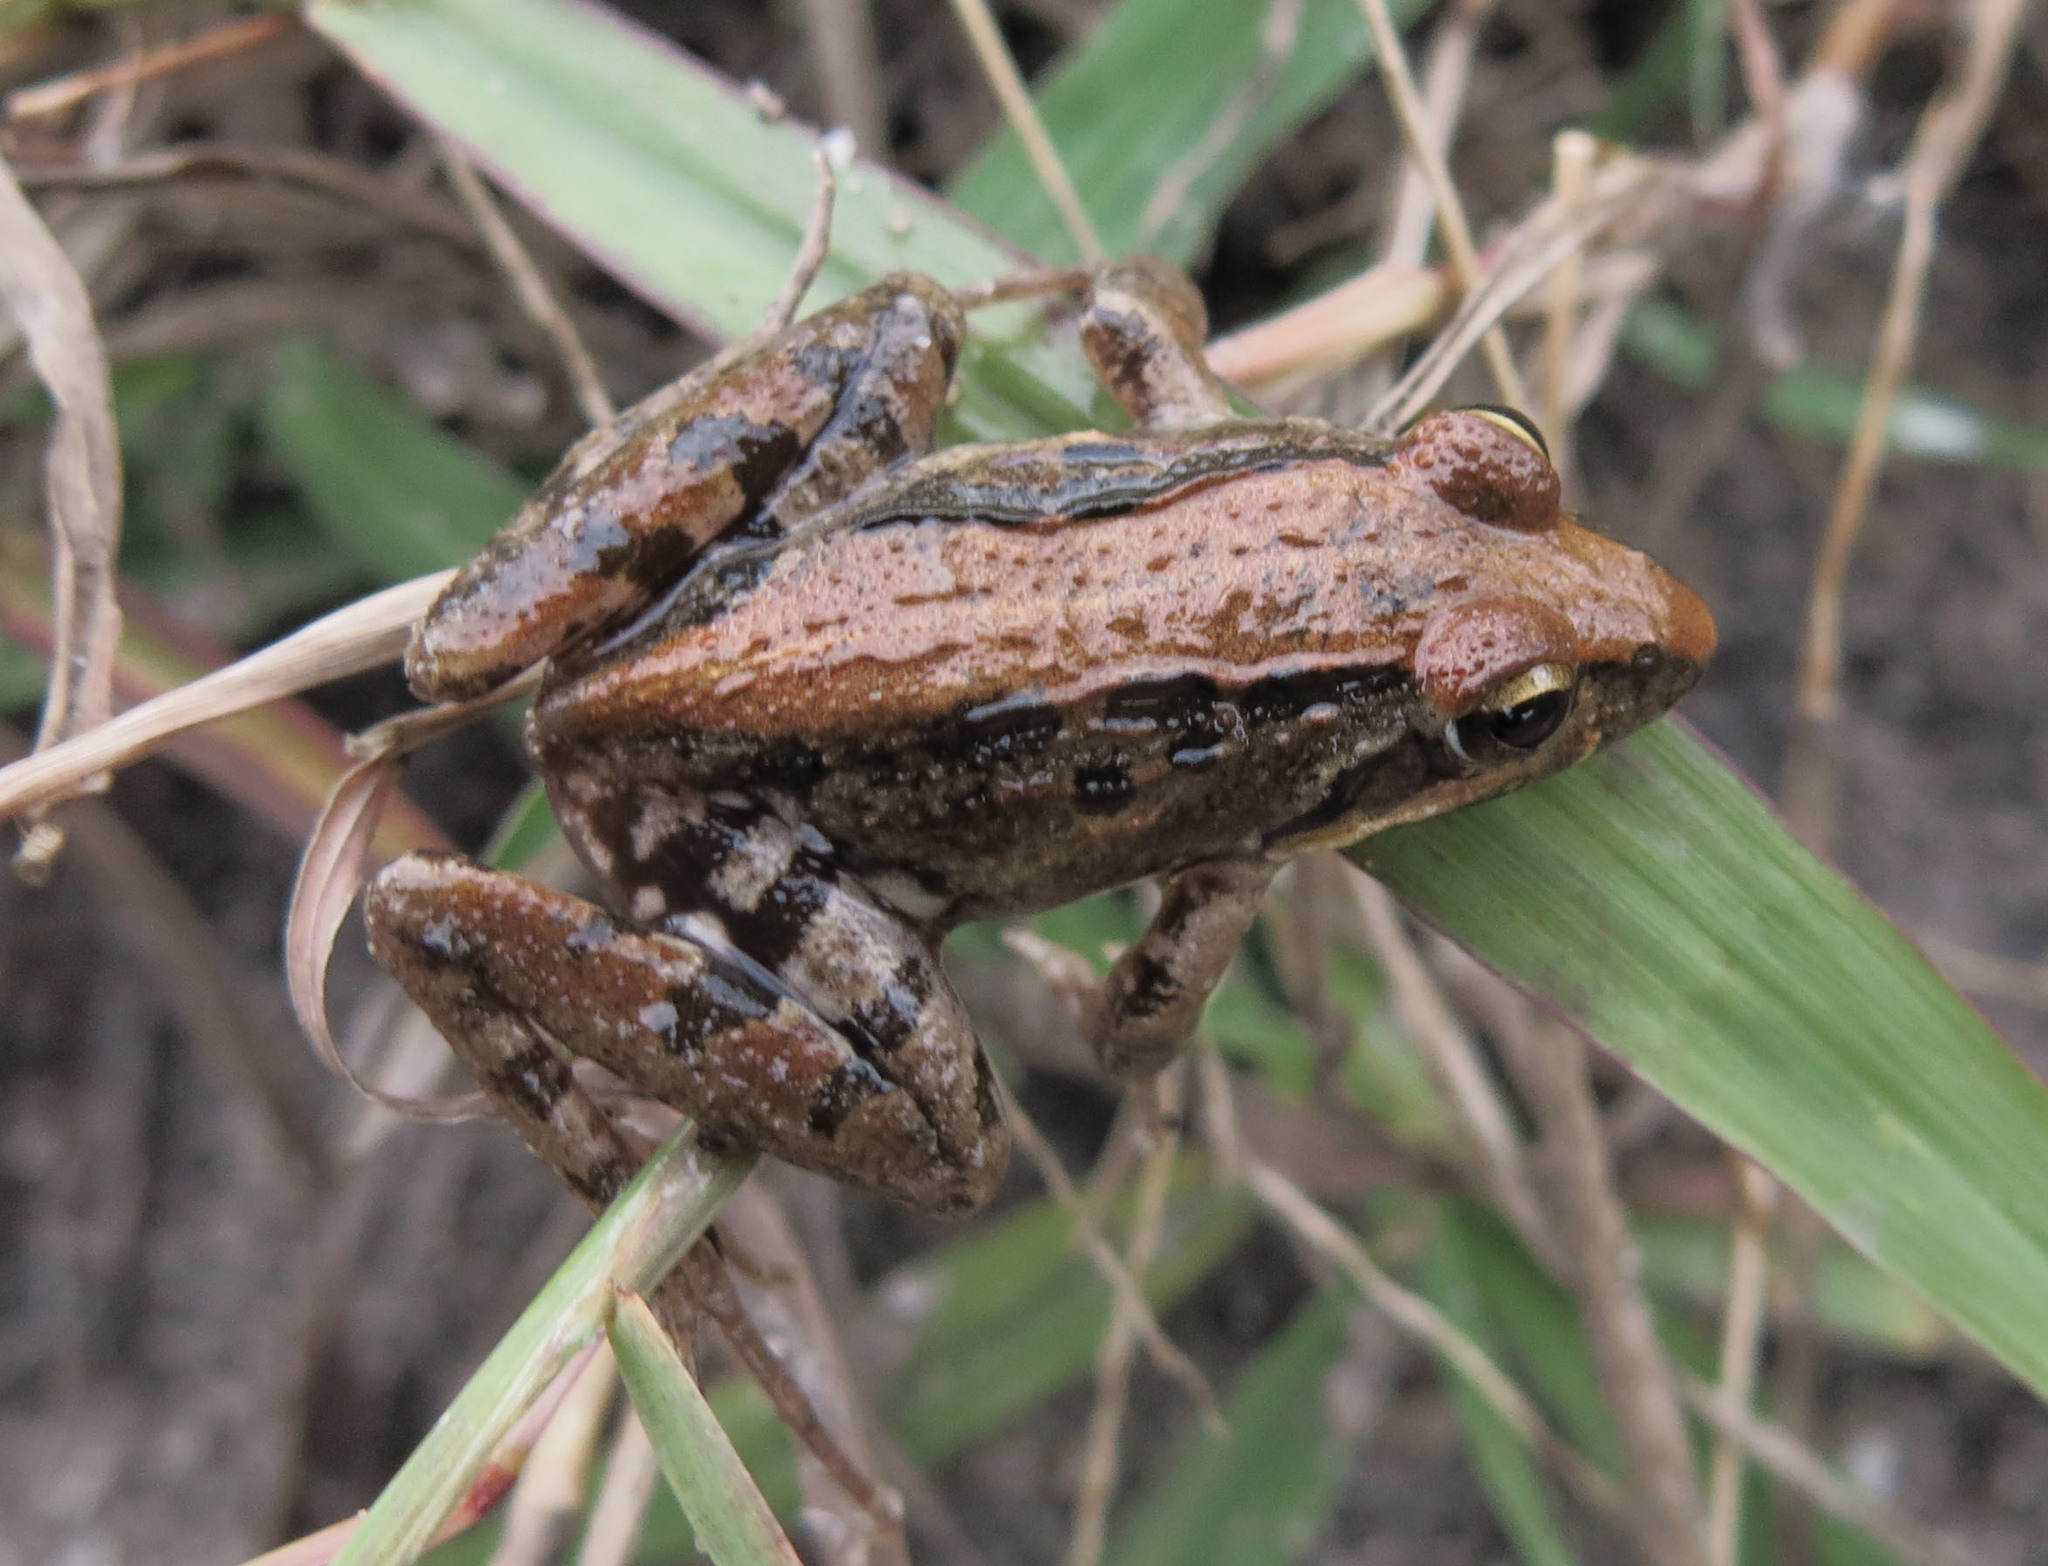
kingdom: Animalia
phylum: Chordata
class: Amphibia
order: Anura
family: Pyxicephalidae
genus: Strongylopus
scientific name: Strongylopus grayii
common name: Gray's stream frog
